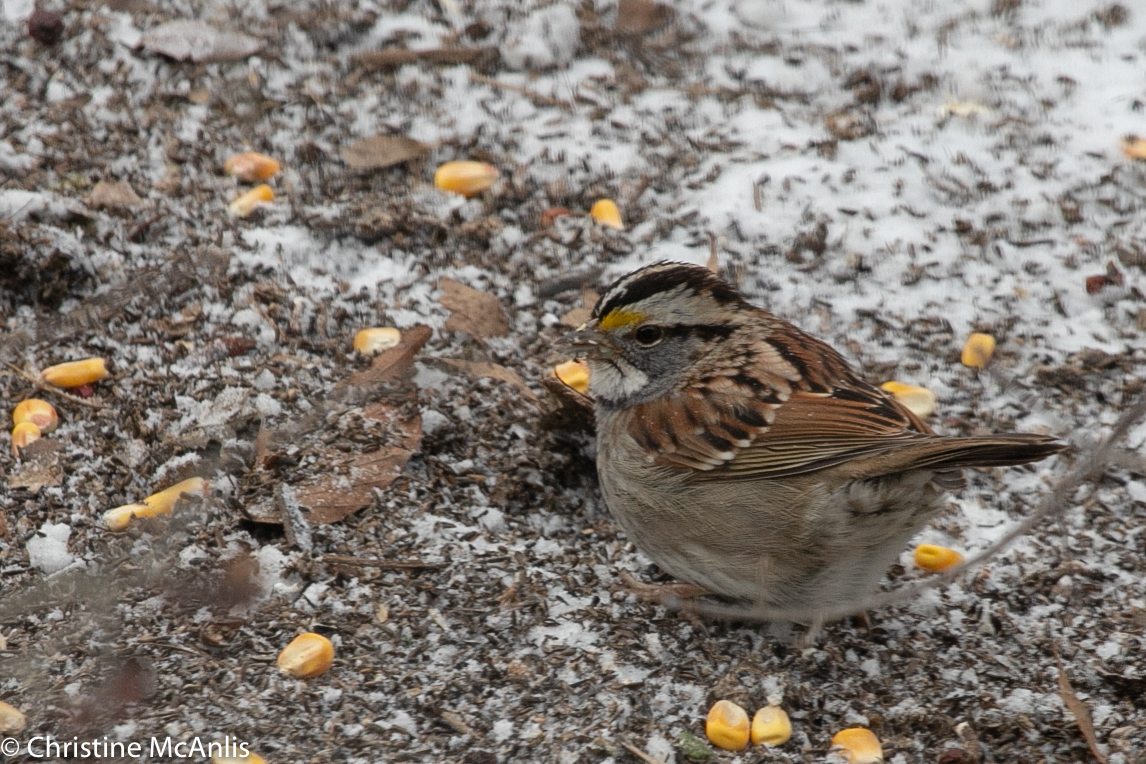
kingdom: Animalia
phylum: Chordata
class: Aves
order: Passeriformes
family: Passerellidae
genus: Zonotrichia
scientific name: Zonotrichia albicollis
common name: White-throated sparrow
